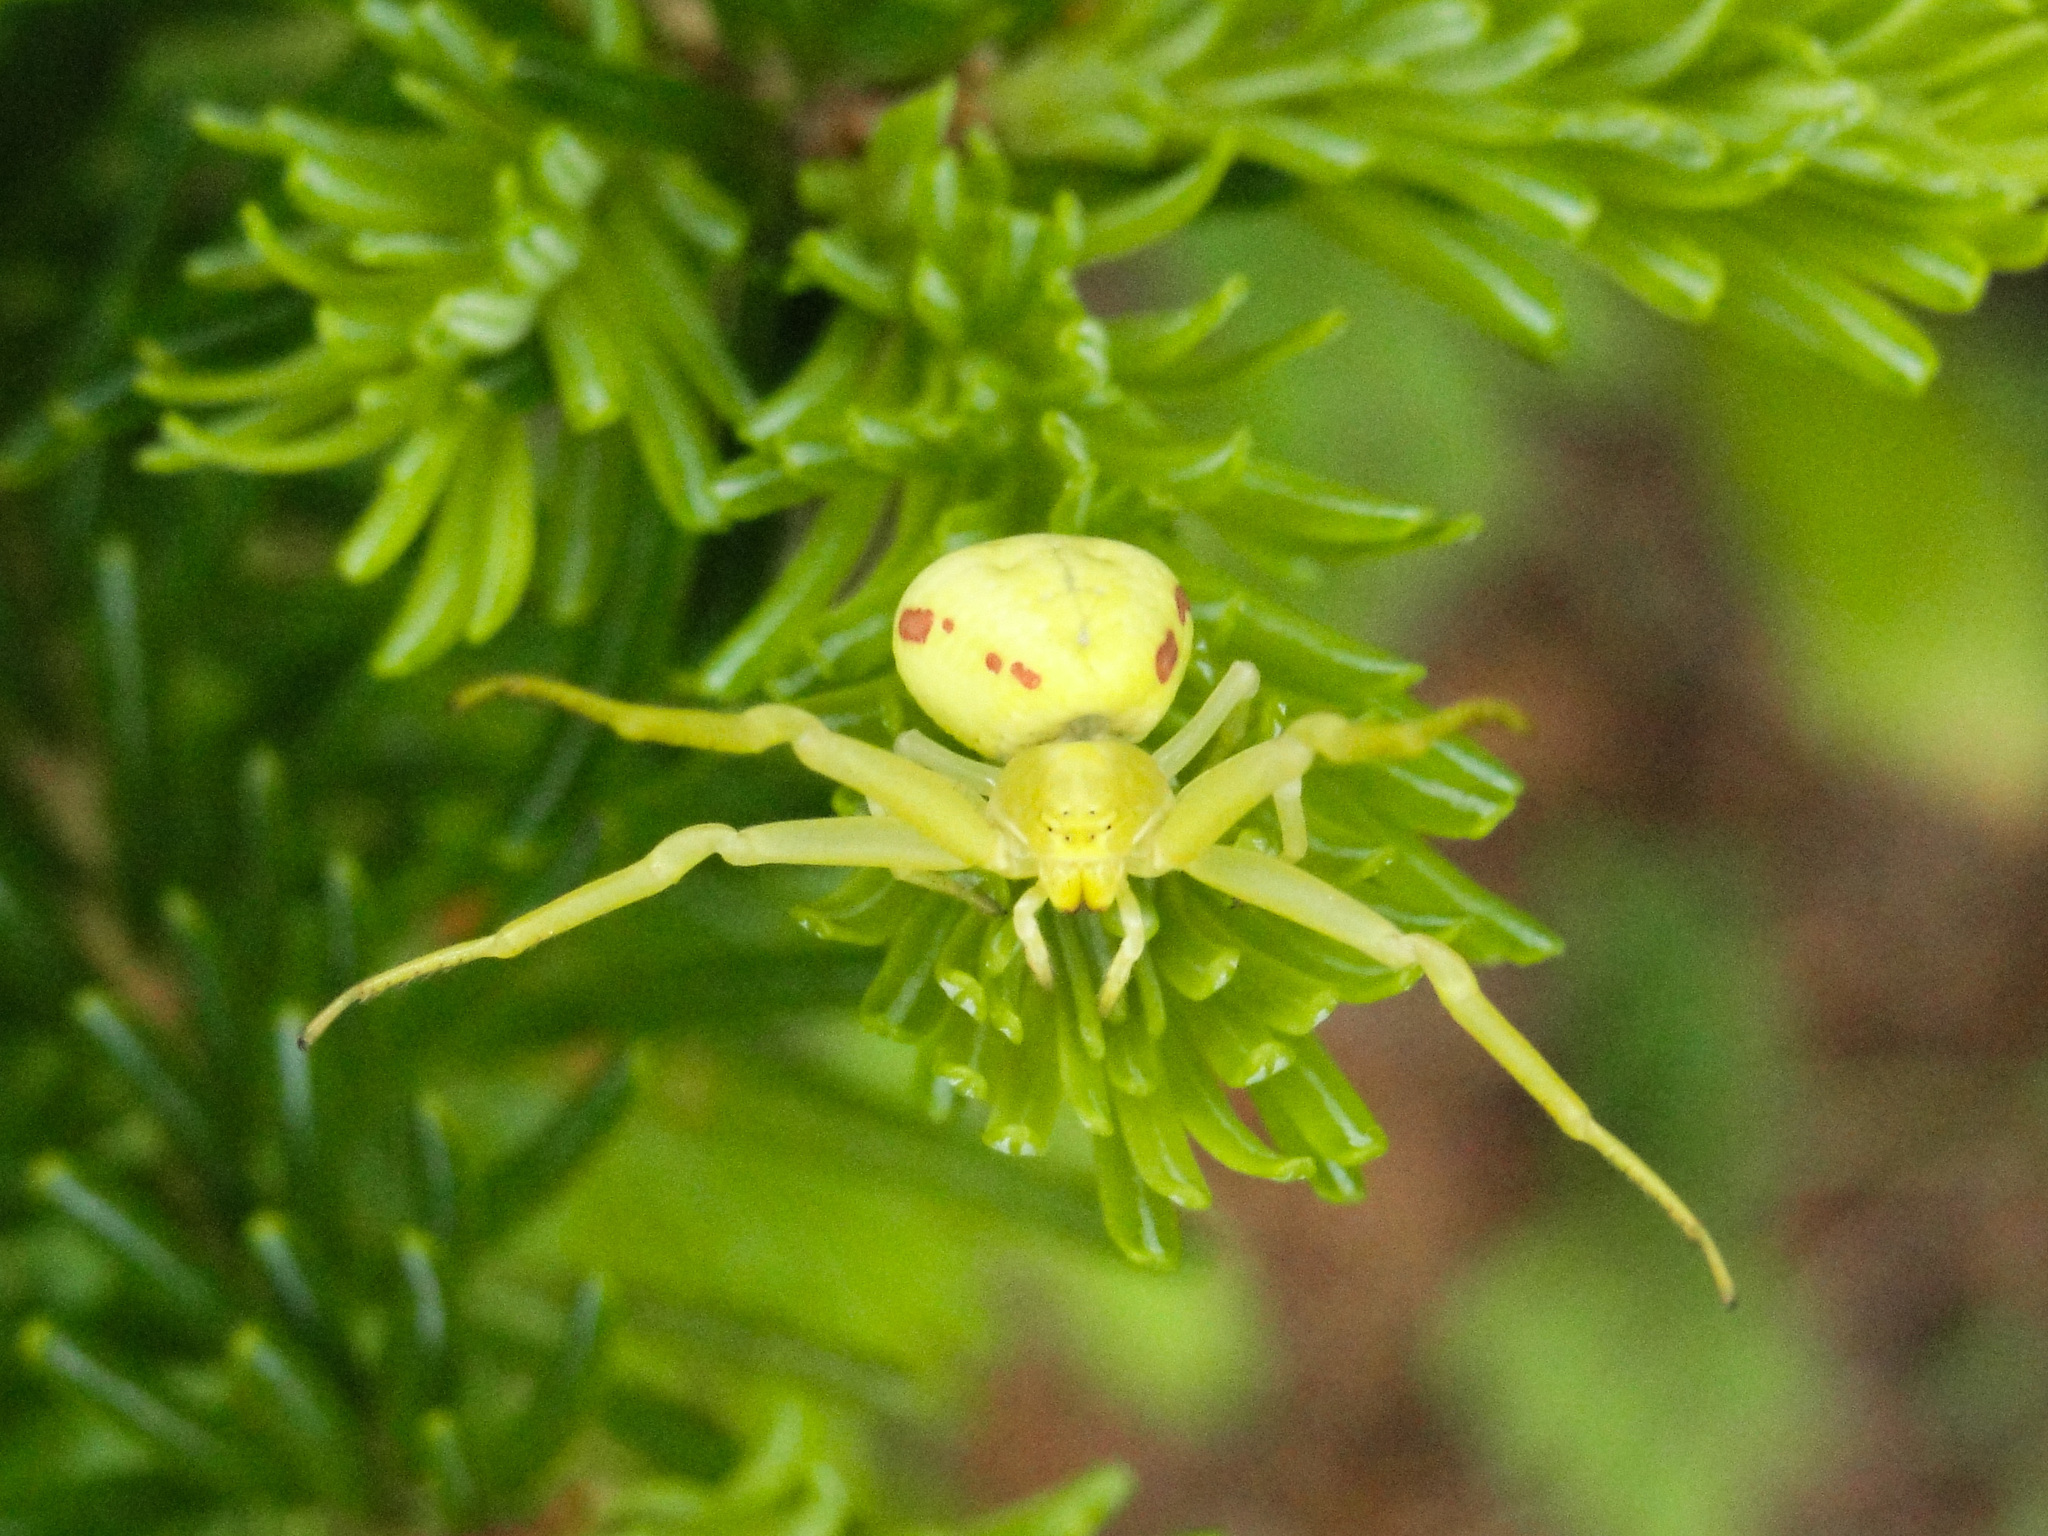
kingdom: Animalia
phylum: Arthropoda
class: Arachnida
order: Araneae
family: Thomisidae
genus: Misumena
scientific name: Misumena vatia
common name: Goldenrod crab spider
